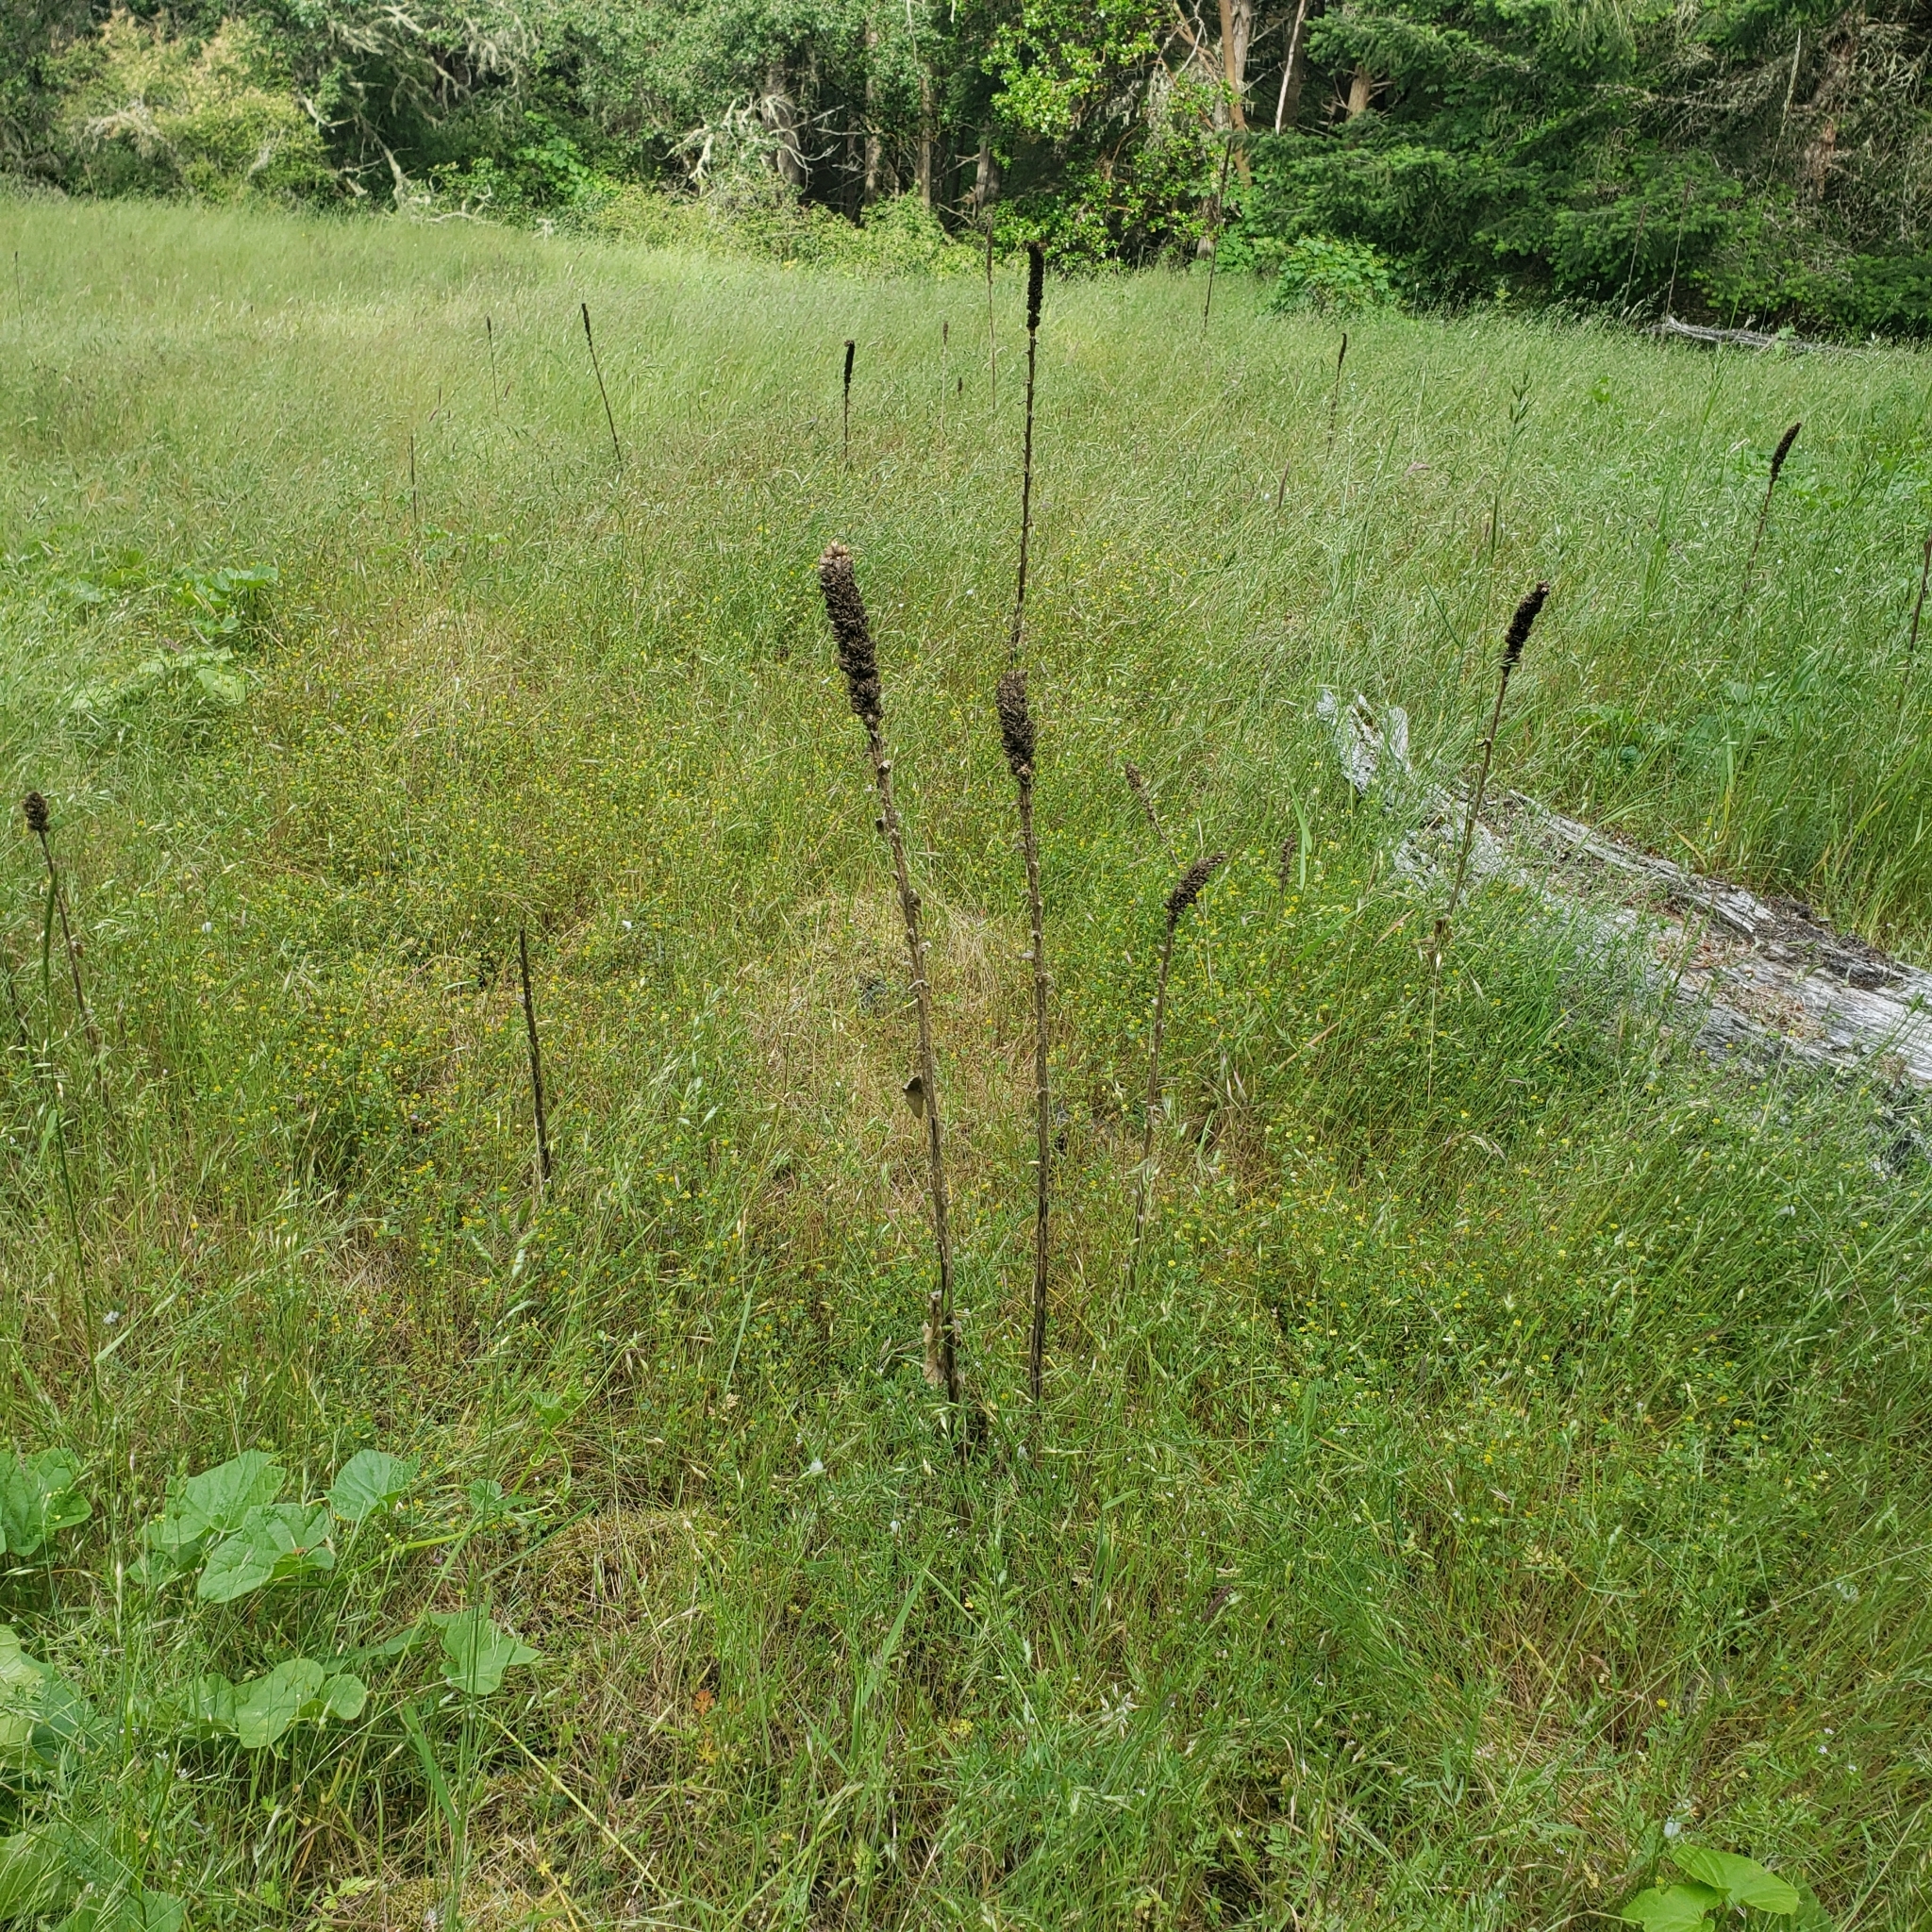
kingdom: Plantae
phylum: Tracheophyta
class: Magnoliopsida
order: Lamiales
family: Scrophulariaceae
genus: Verbascum
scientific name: Verbascum thapsus
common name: Common mullein
